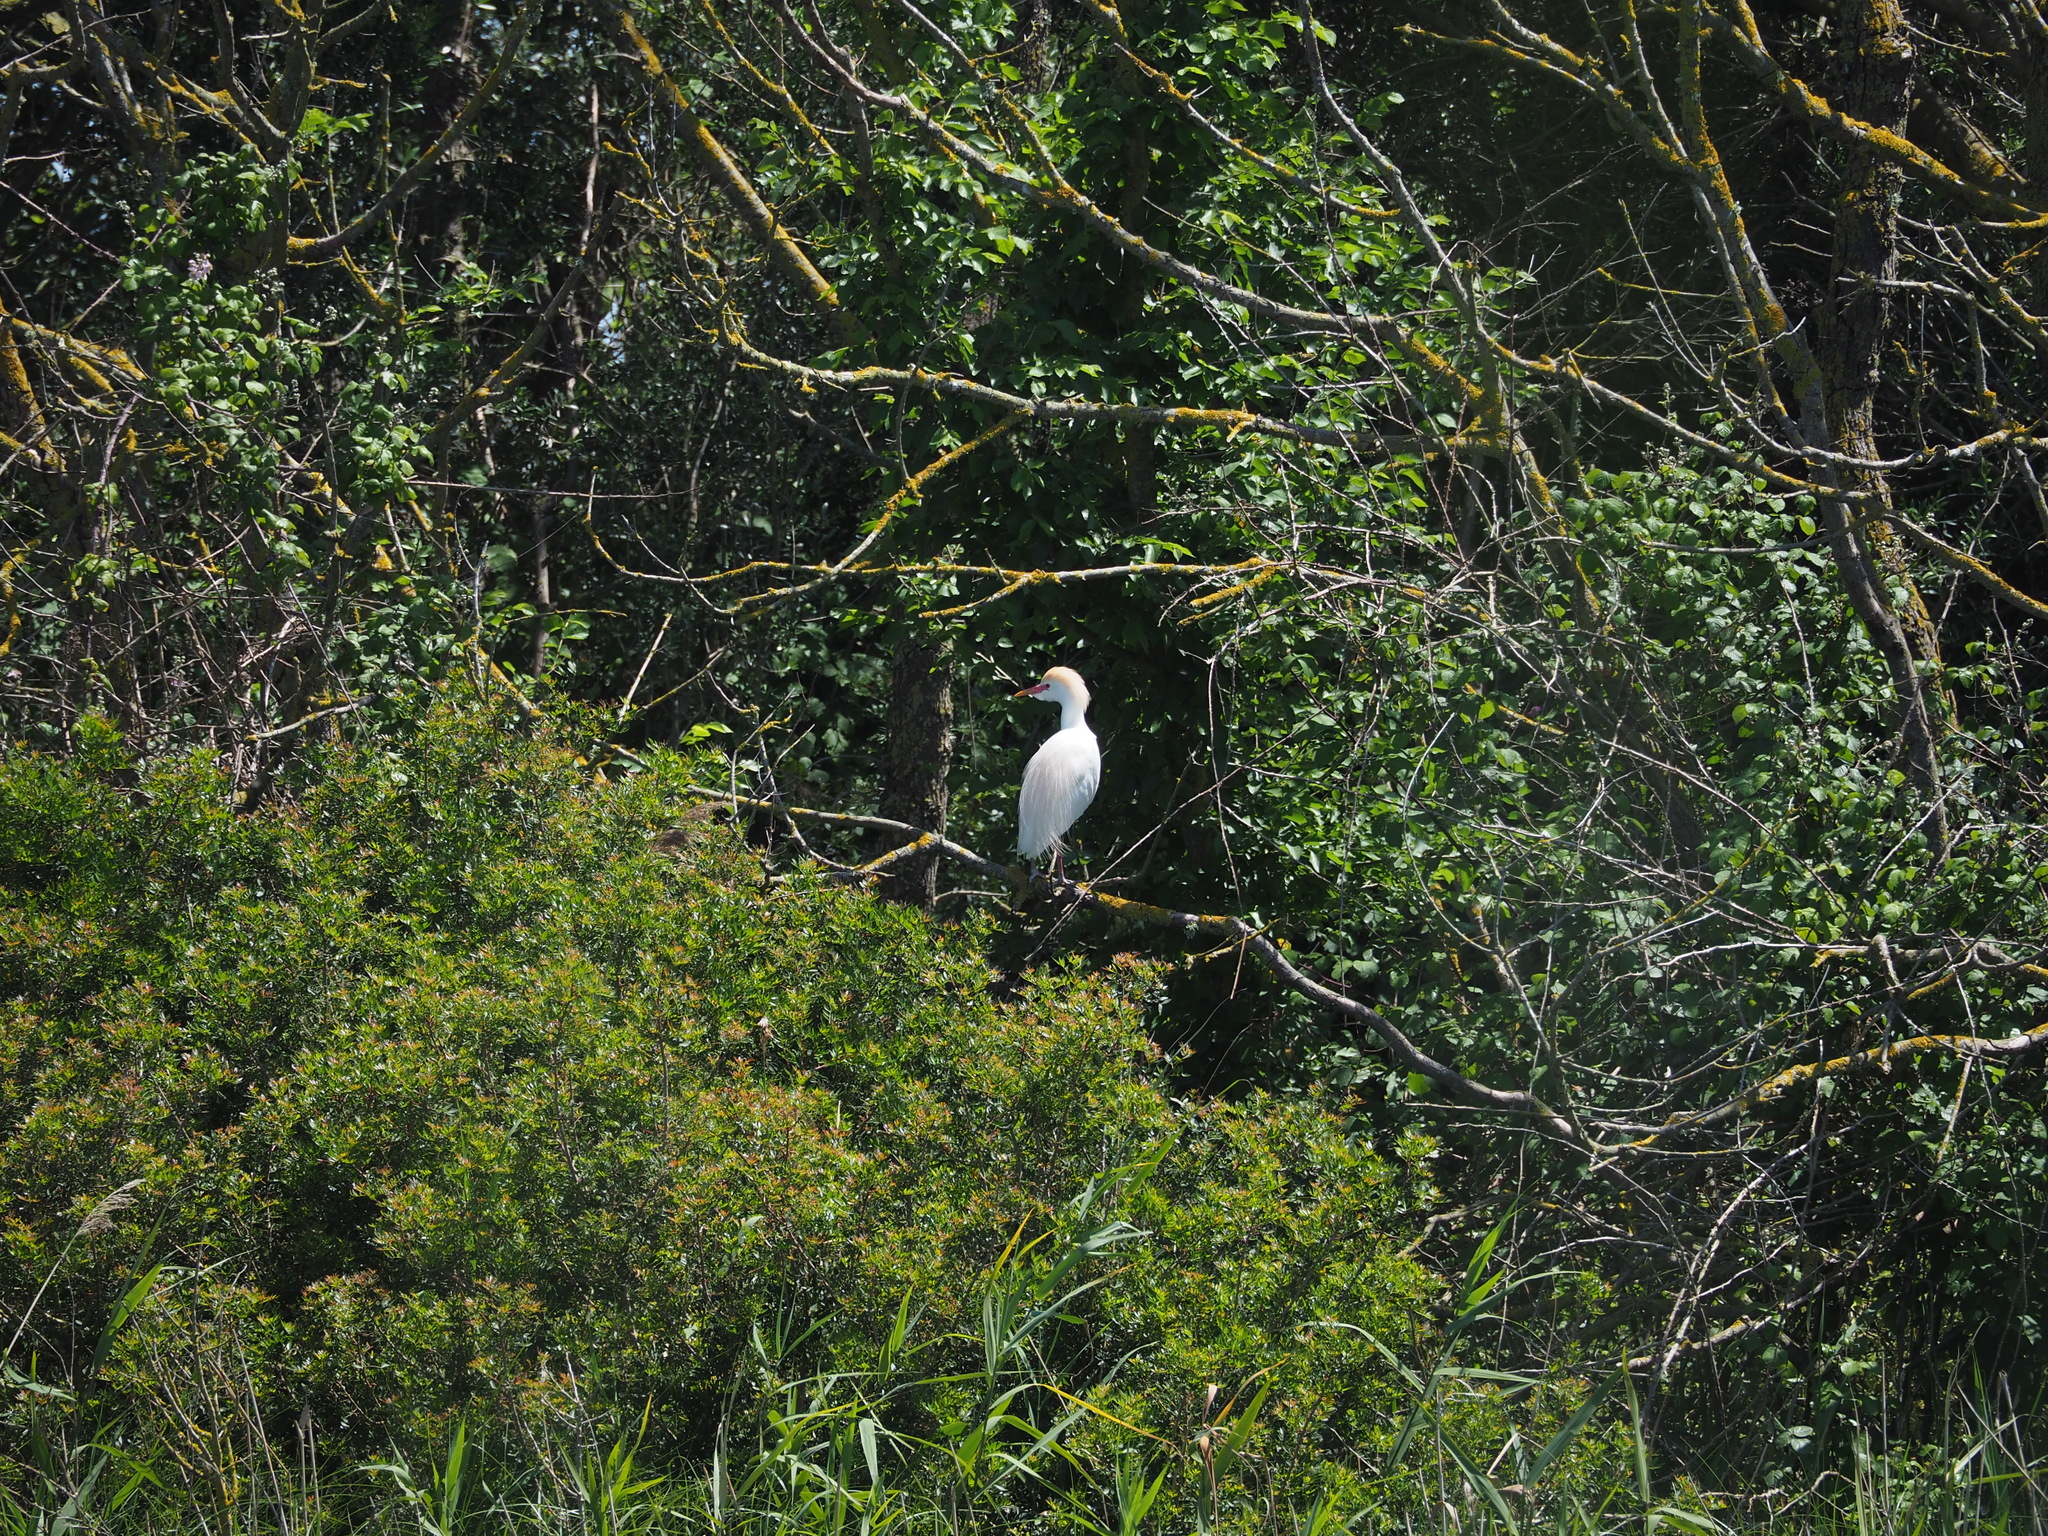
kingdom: Animalia
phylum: Chordata
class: Aves
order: Pelecaniformes
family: Ardeidae
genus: Bubulcus
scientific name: Bubulcus ibis
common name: Cattle egret
